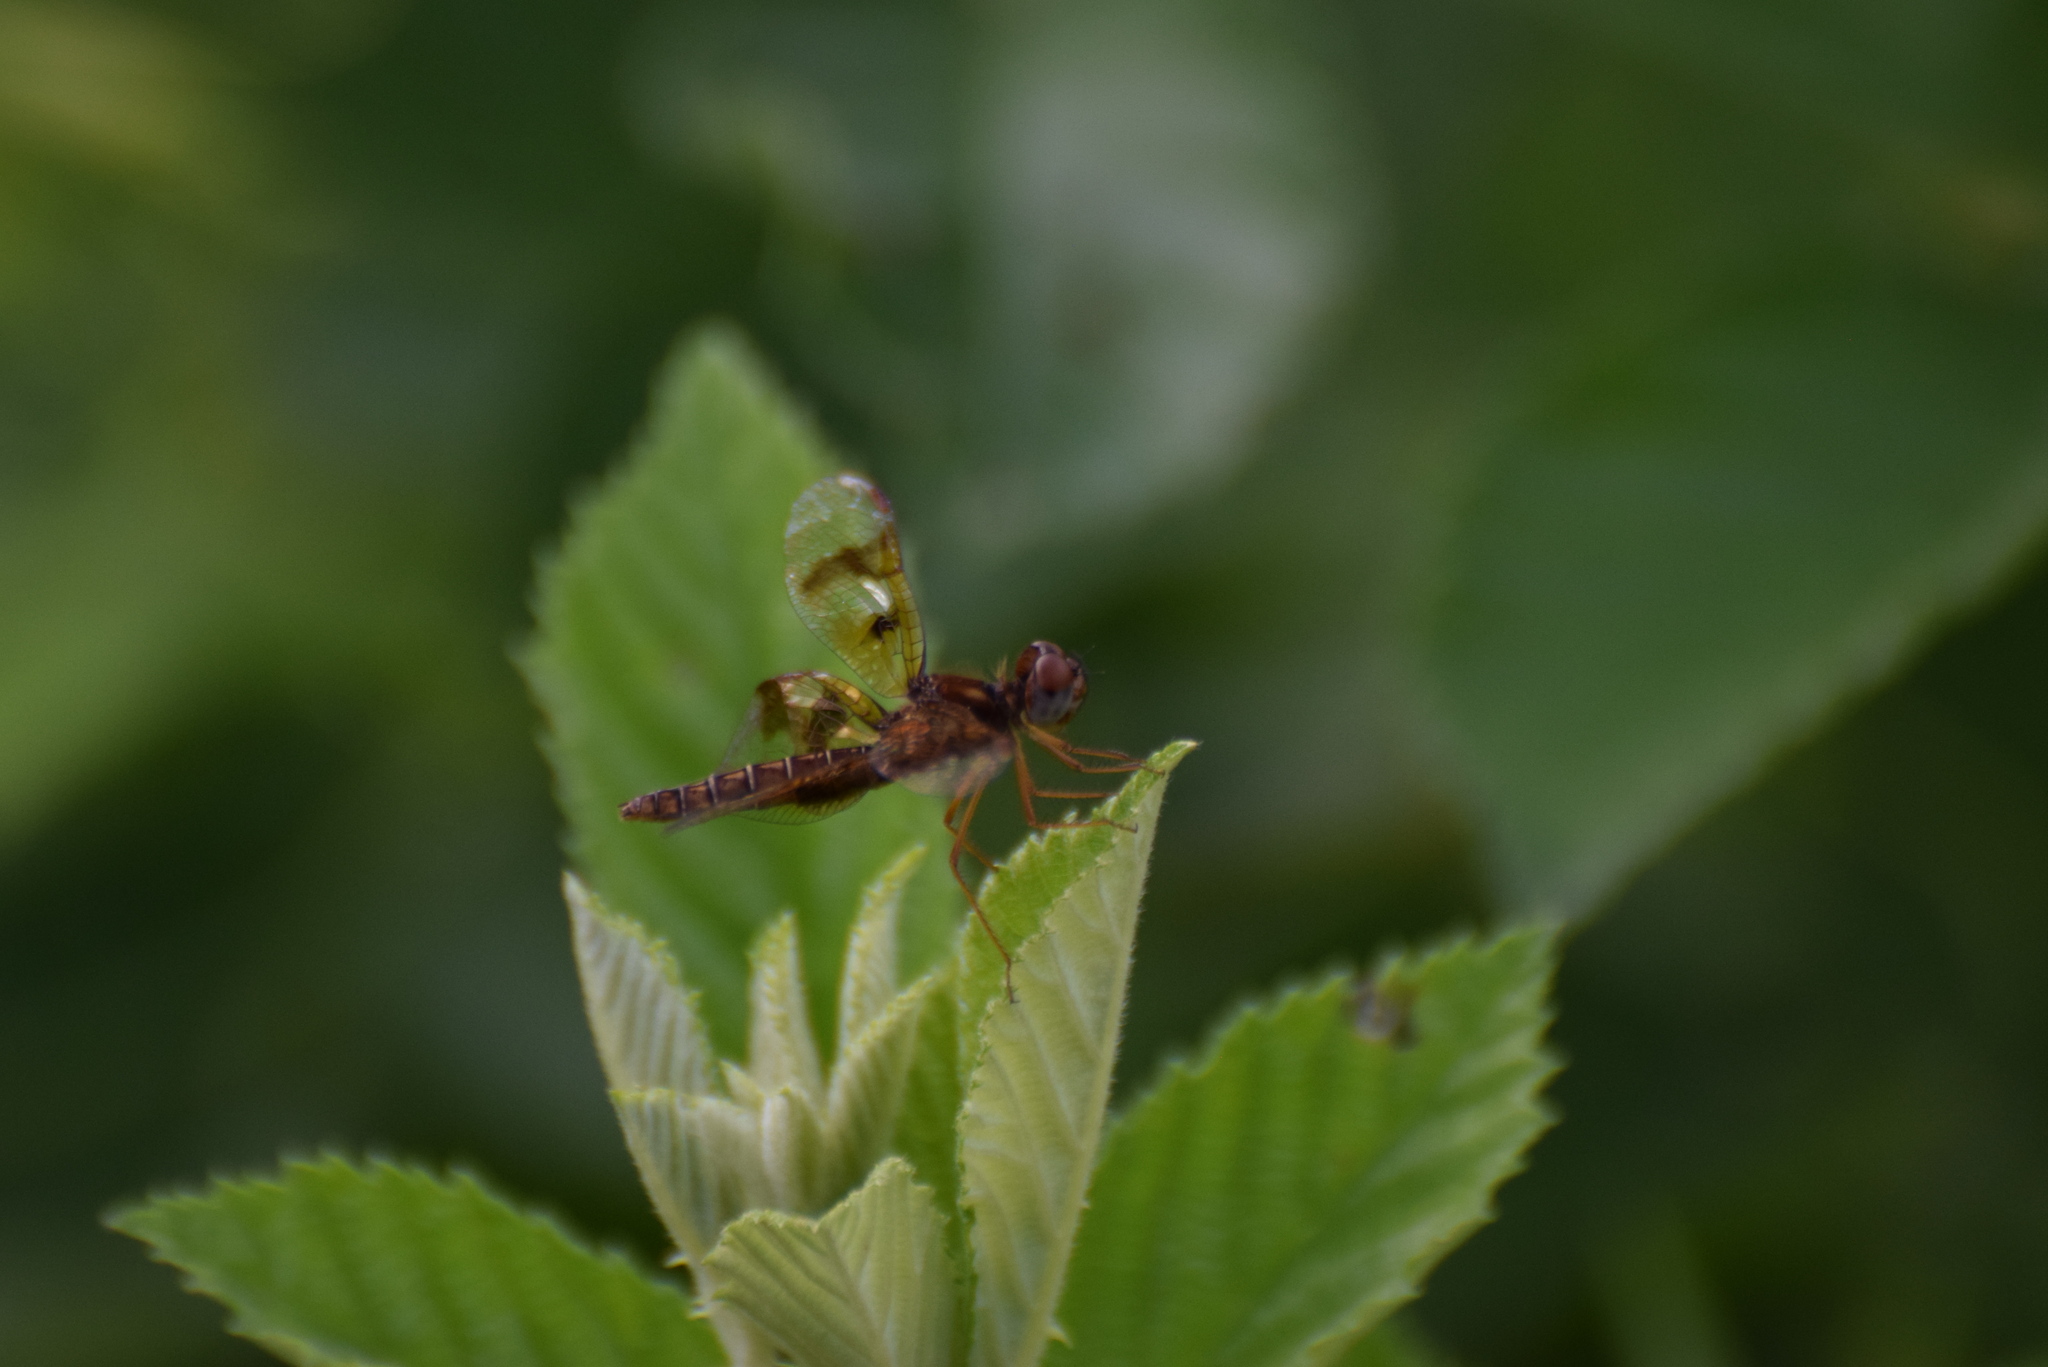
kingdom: Animalia
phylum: Arthropoda
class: Insecta
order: Odonata
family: Libellulidae
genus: Perithemis
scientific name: Perithemis tenera
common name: Eastern amberwing
